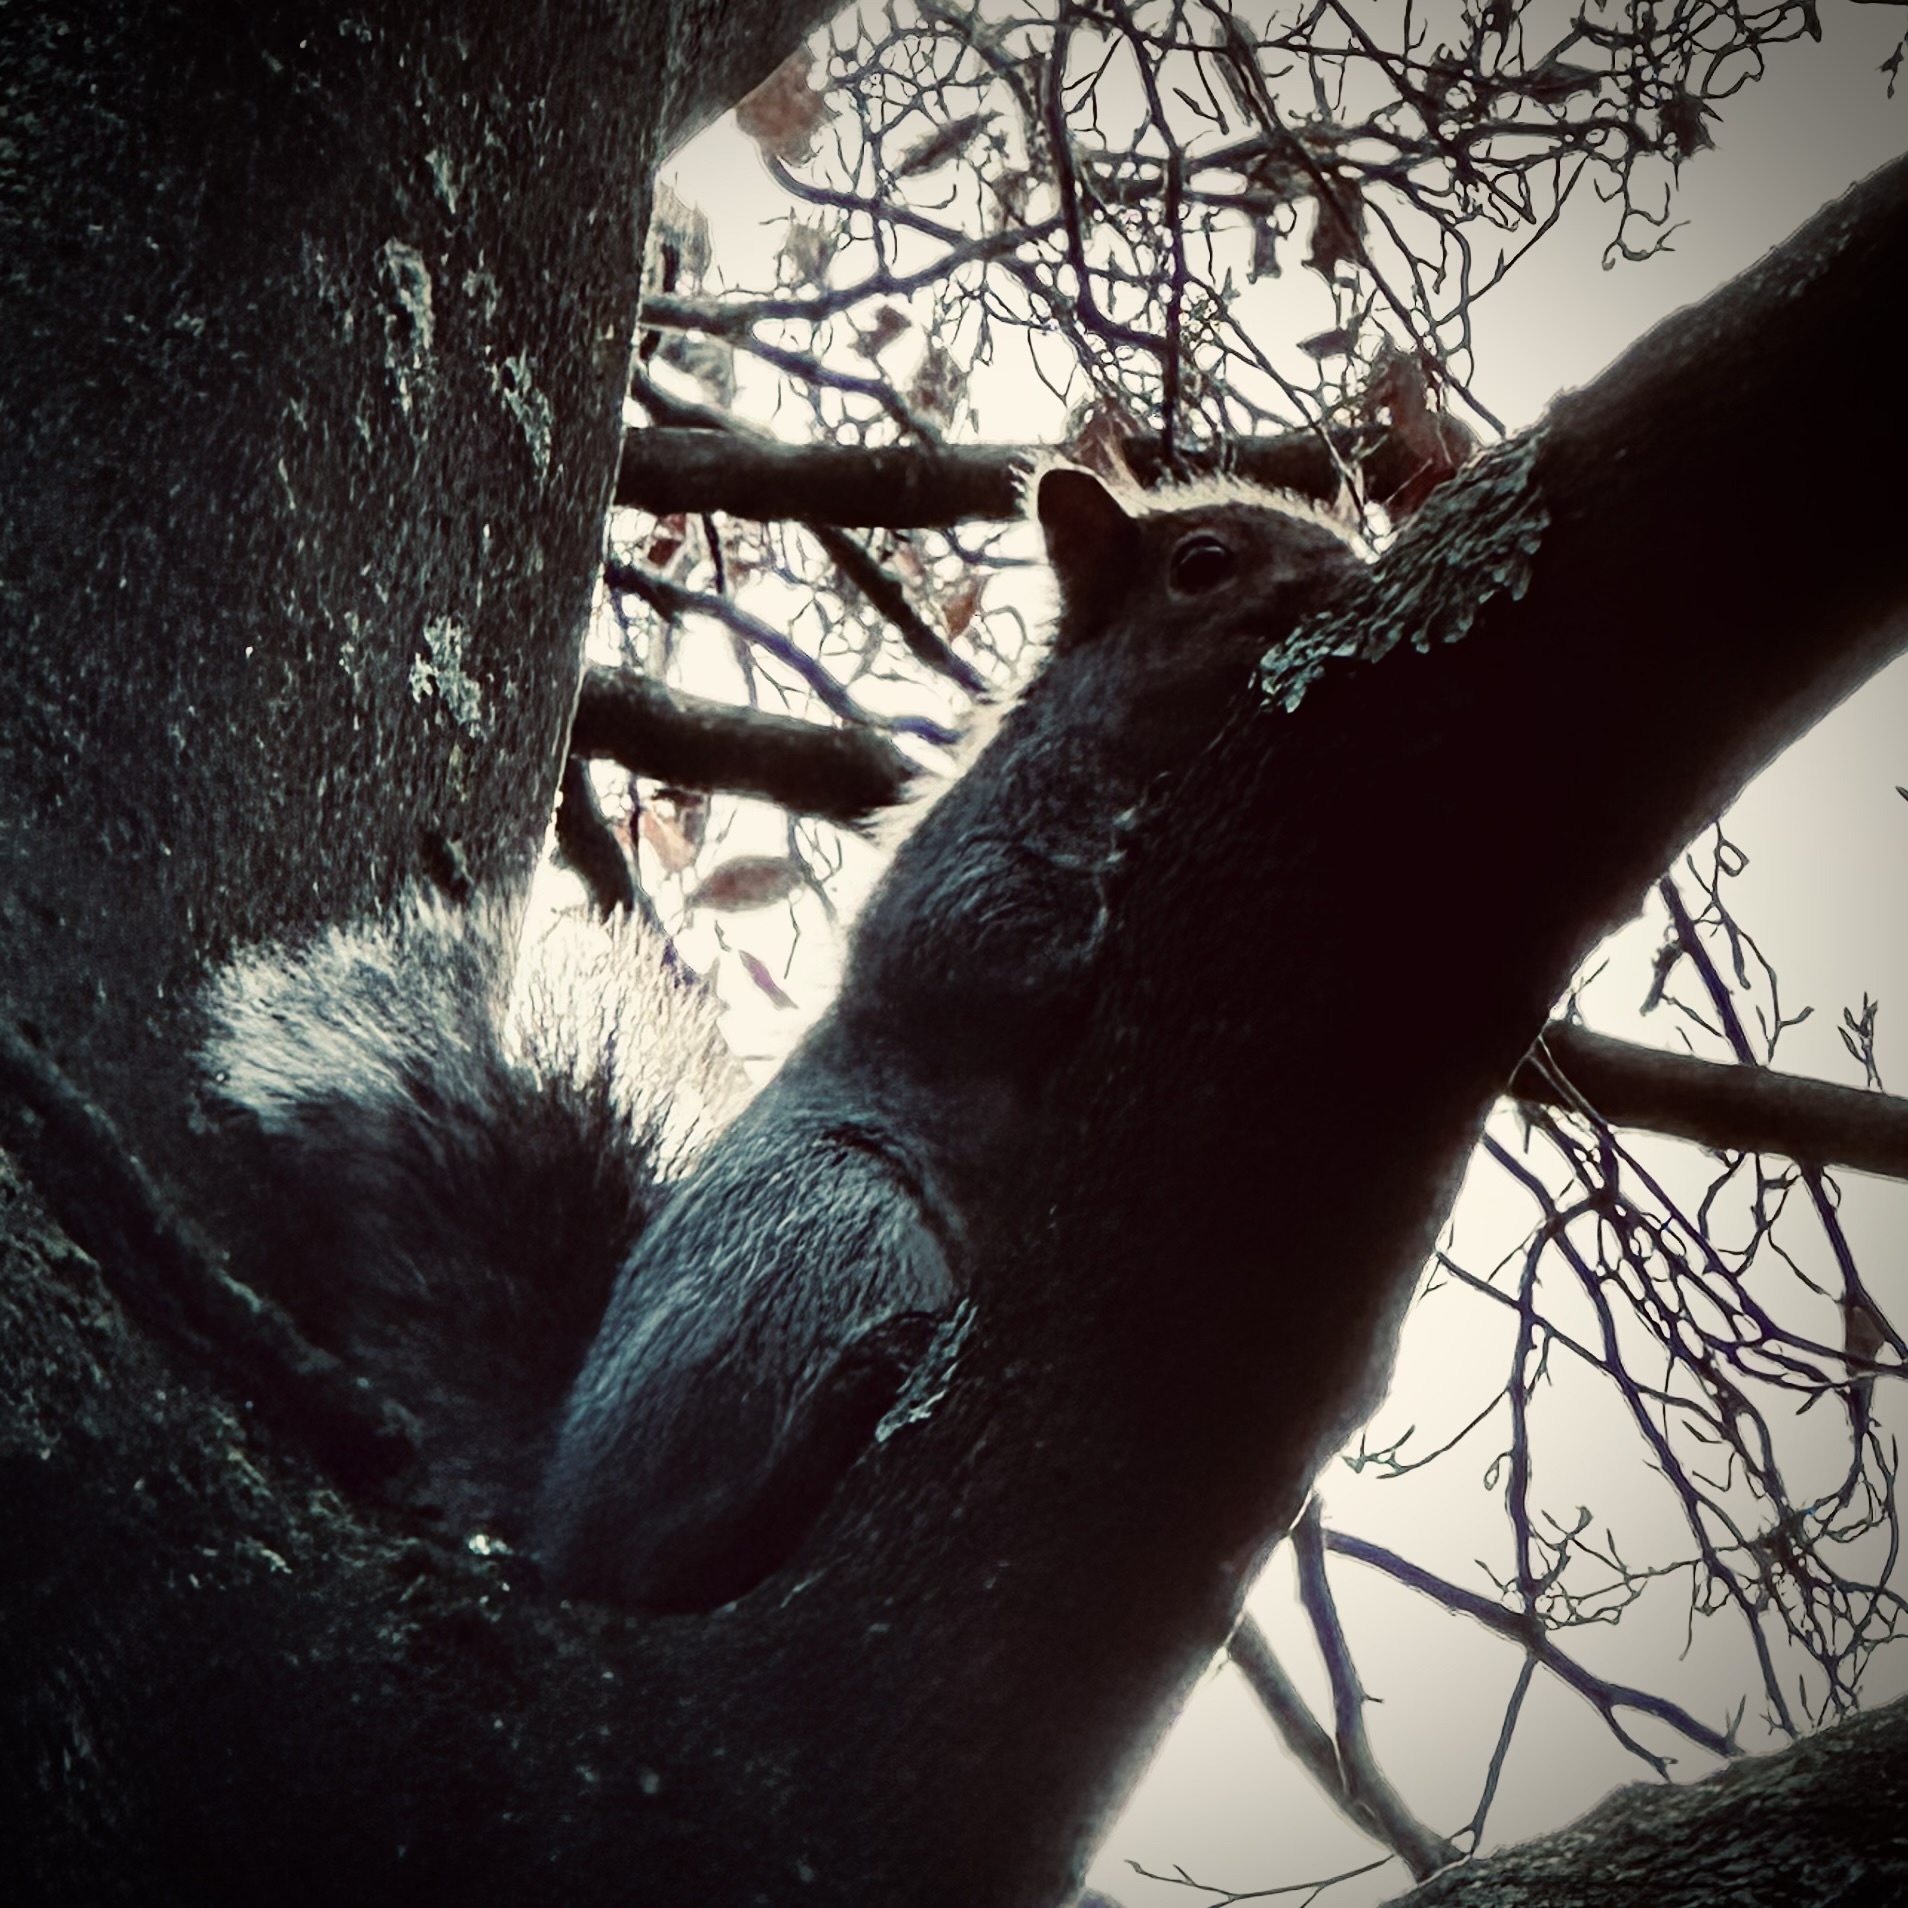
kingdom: Animalia
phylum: Chordata
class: Mammalia
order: Rodentia
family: Sciuridae
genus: Sciurus
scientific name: Sciurus carolinensis
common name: Eastern gray squirrel
